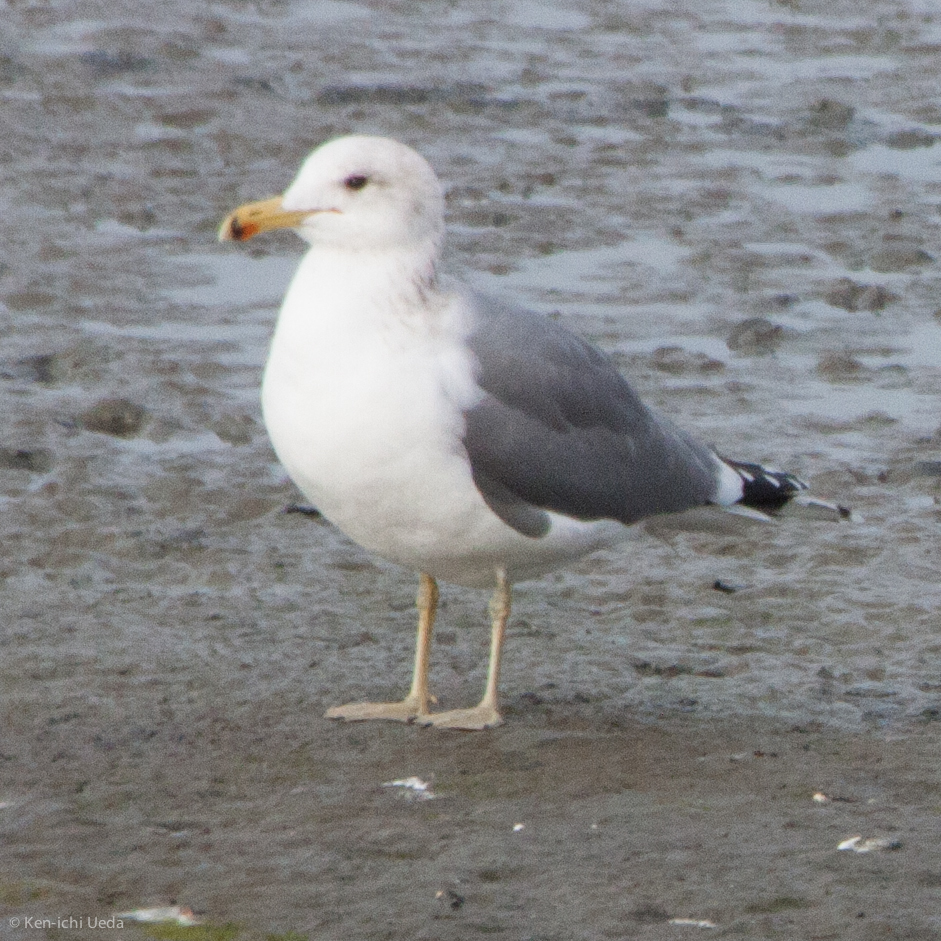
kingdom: Animalia
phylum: Chordata
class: Aves
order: Charadriiformes
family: Laridae
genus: Larus
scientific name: Larus californicus
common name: California gull
